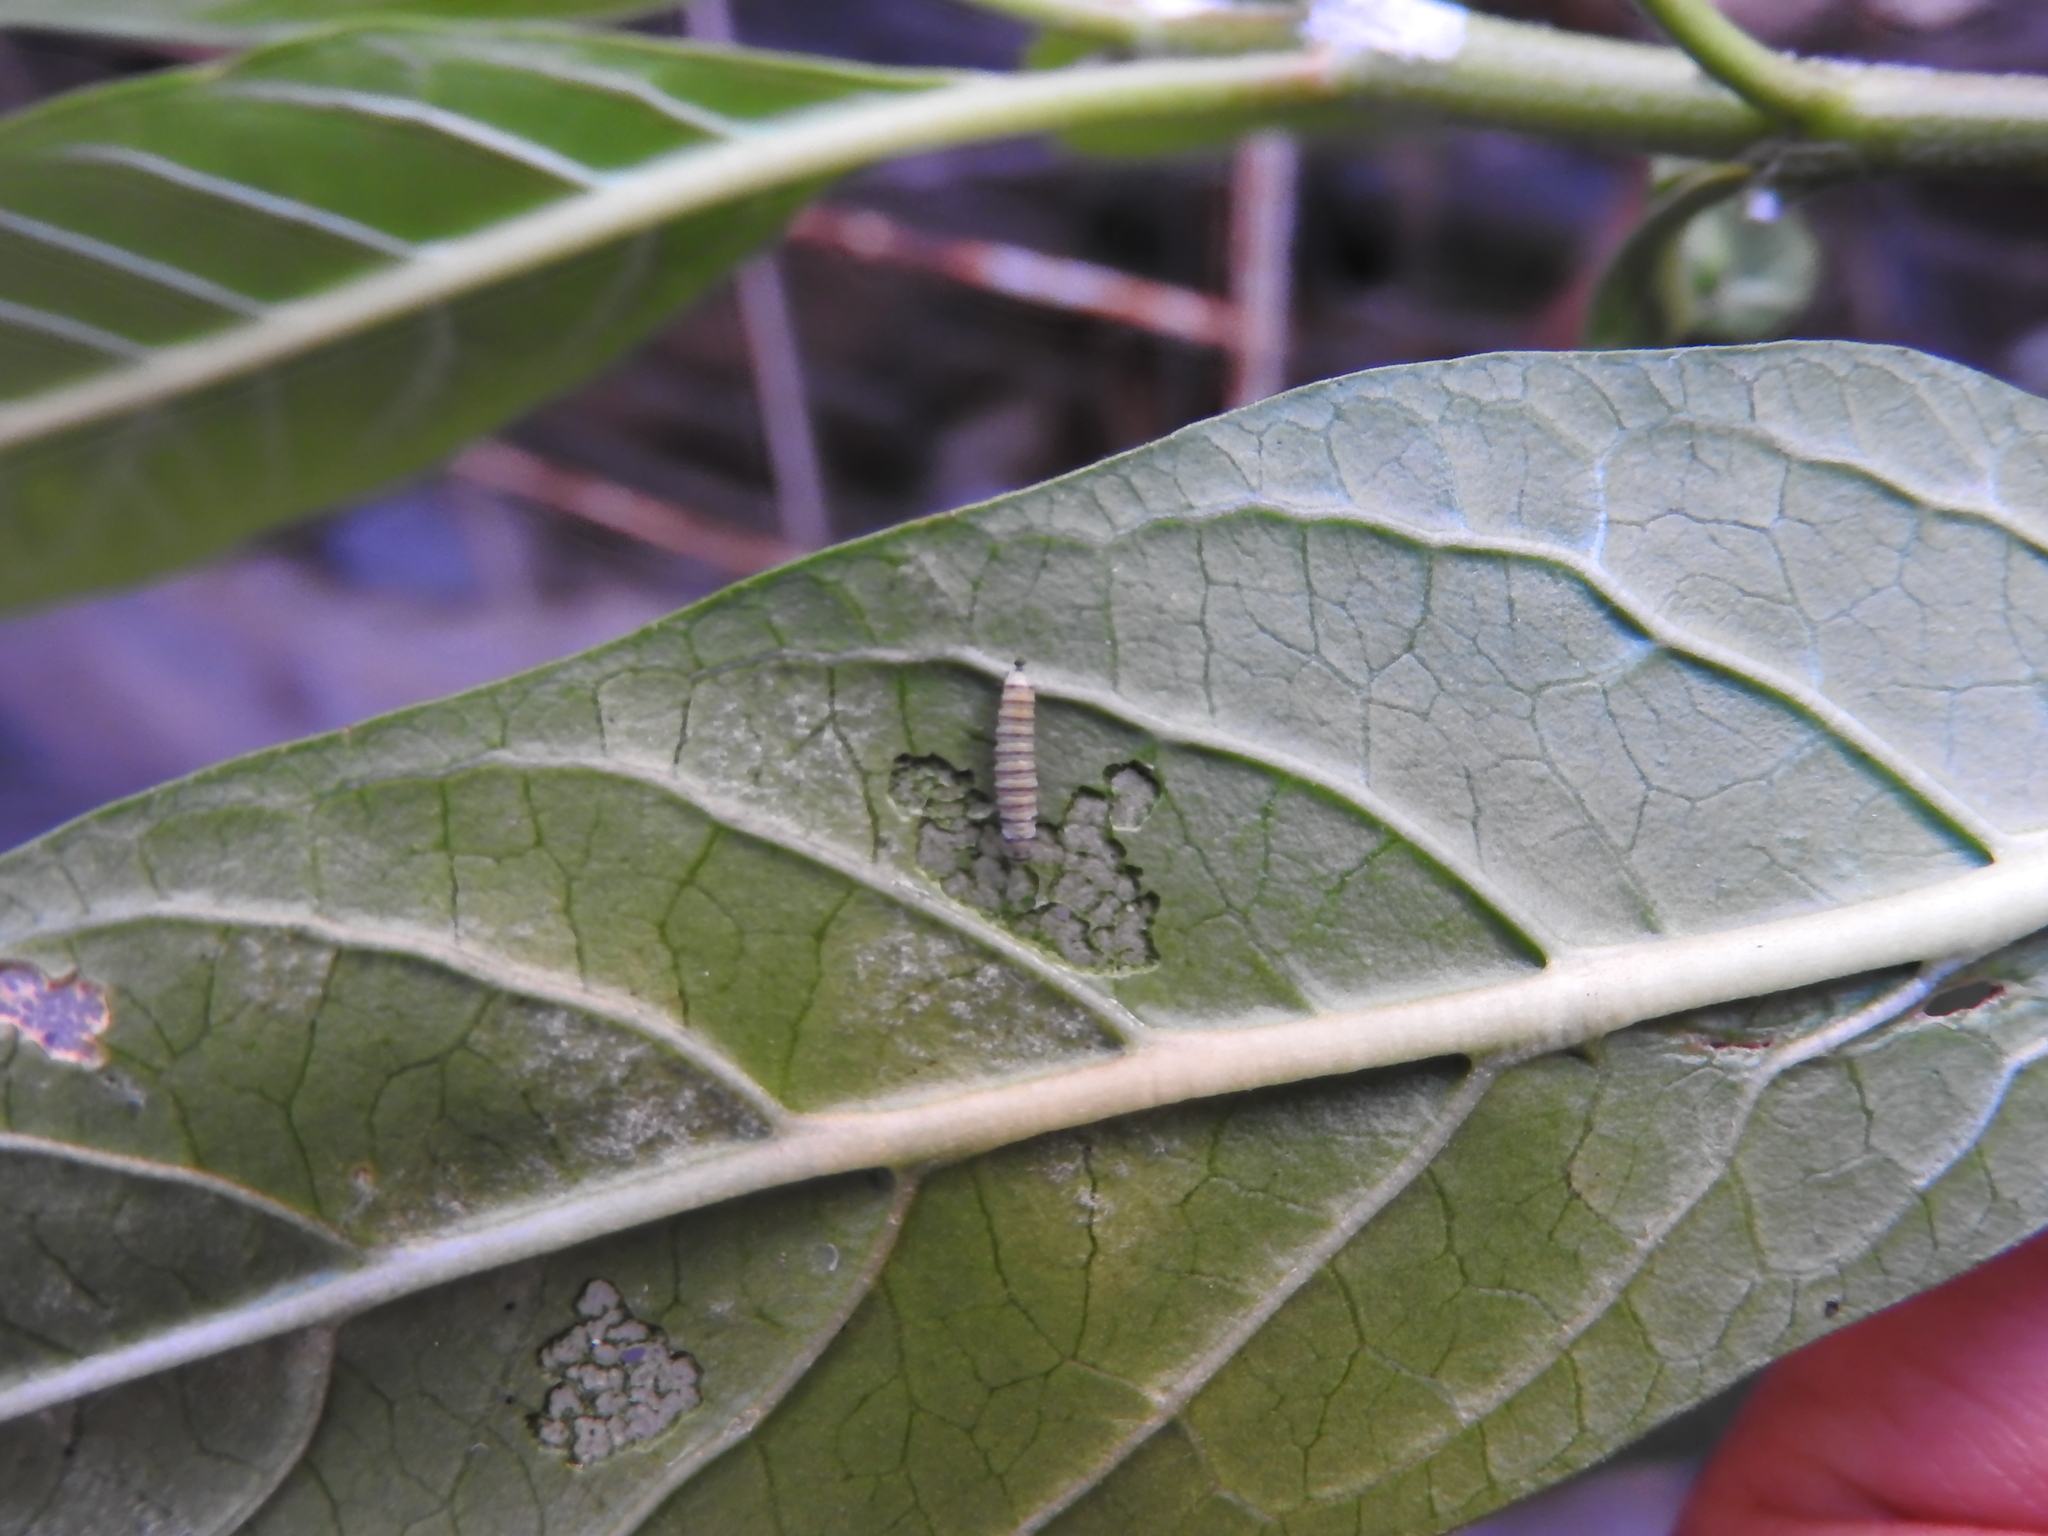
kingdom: Animalia
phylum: Arthropoda
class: Insecta
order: Lepidoptera
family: Nymphalidae
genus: Danaus
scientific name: Danaus plexippus
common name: Monarch
